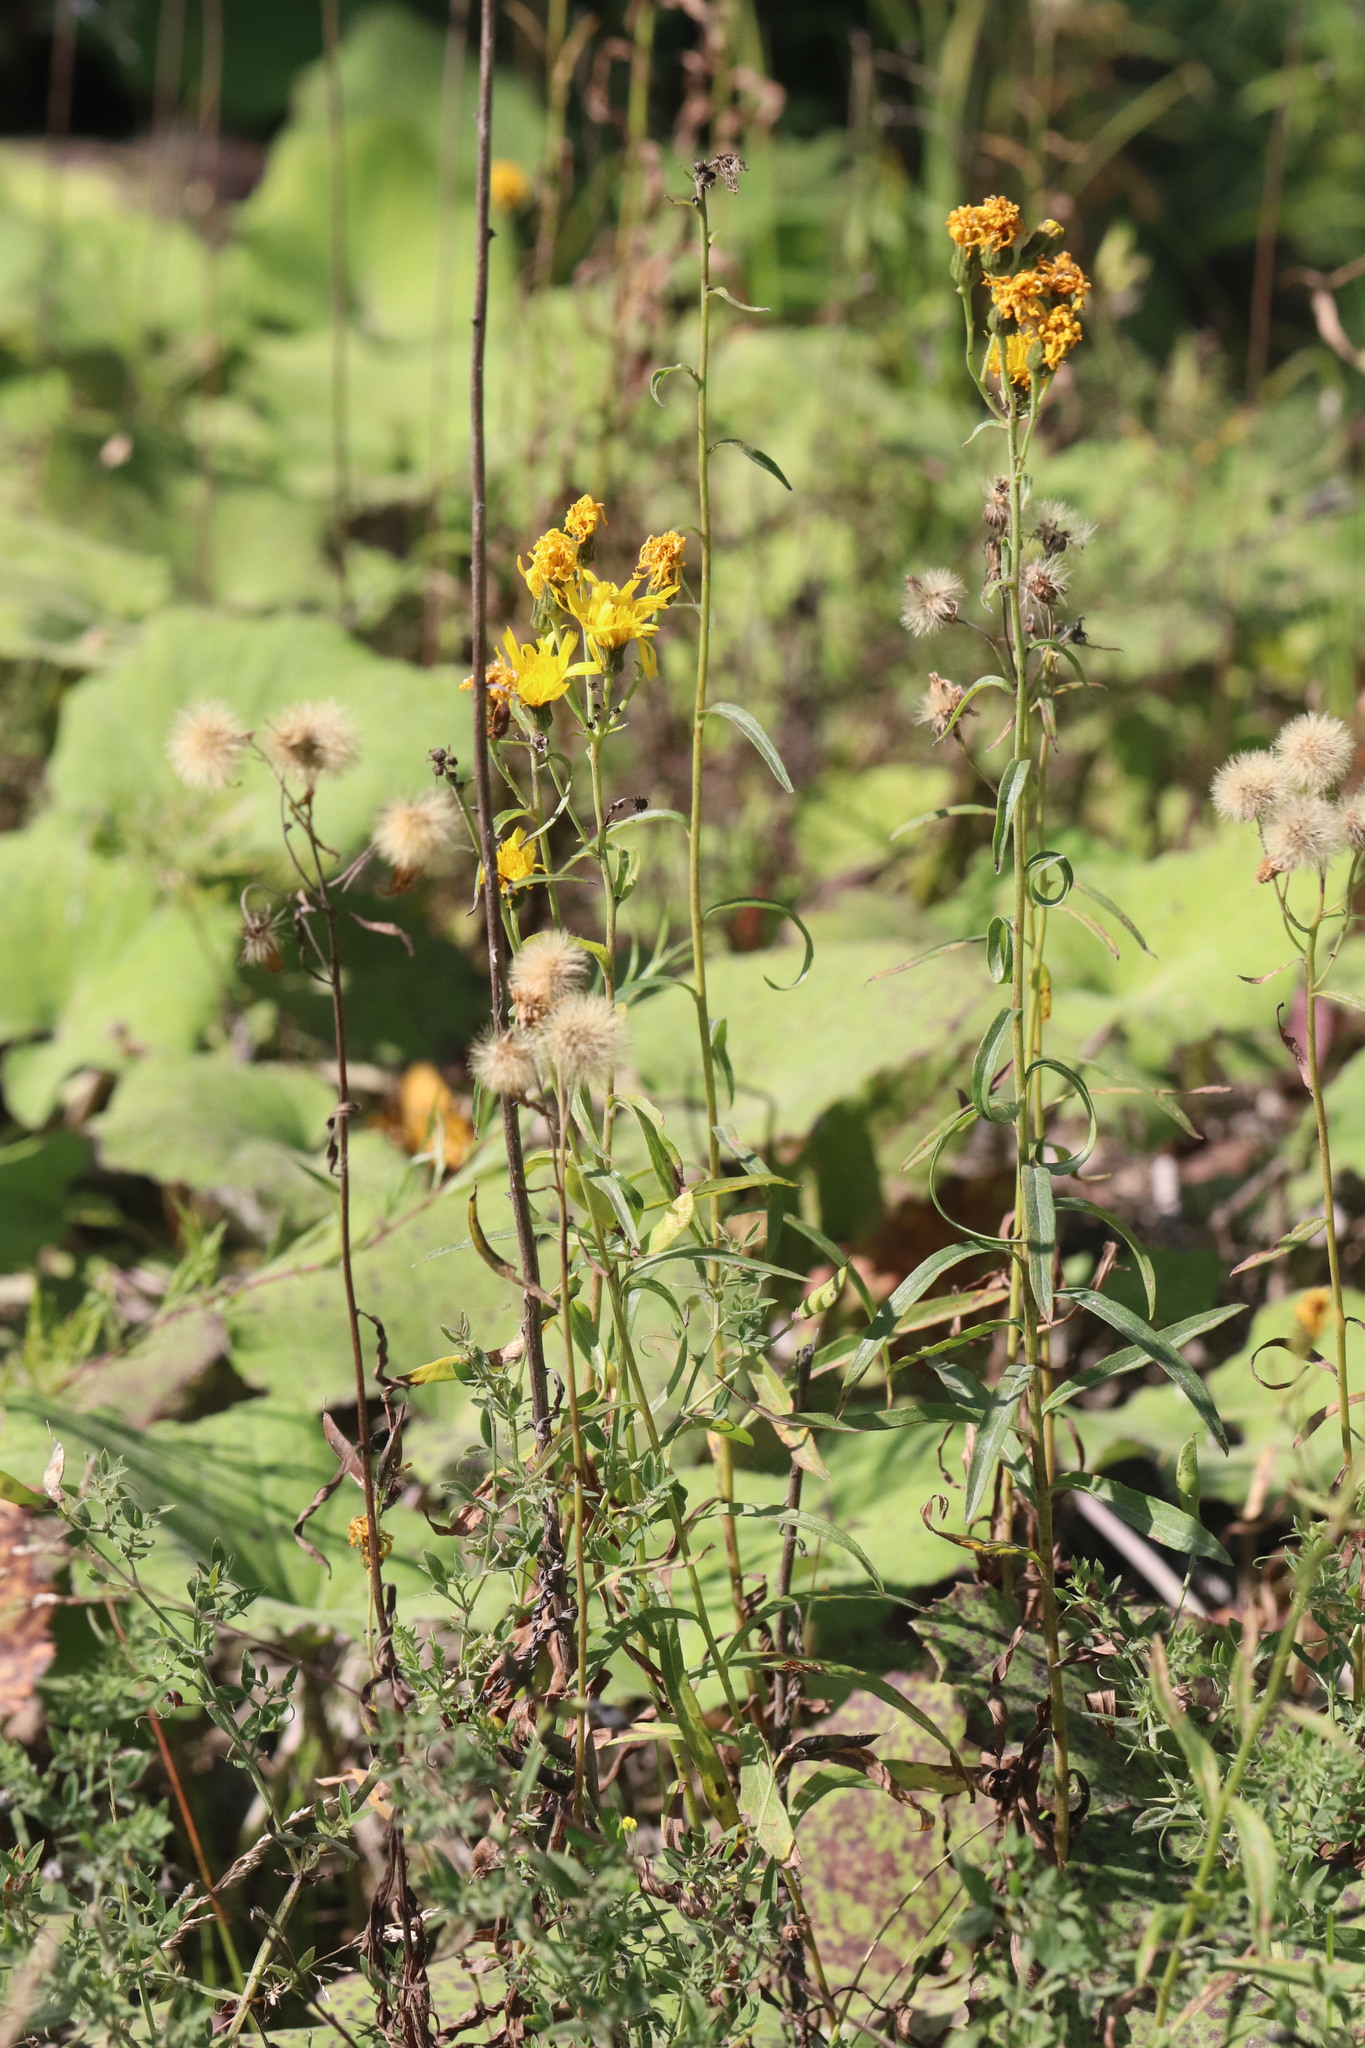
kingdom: Plantae
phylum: Tracheophyta
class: Magnoliopsida
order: Asterales
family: Asteraceae
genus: Hieracium
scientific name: Hieracium umbellatum
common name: Northern hawkweed
